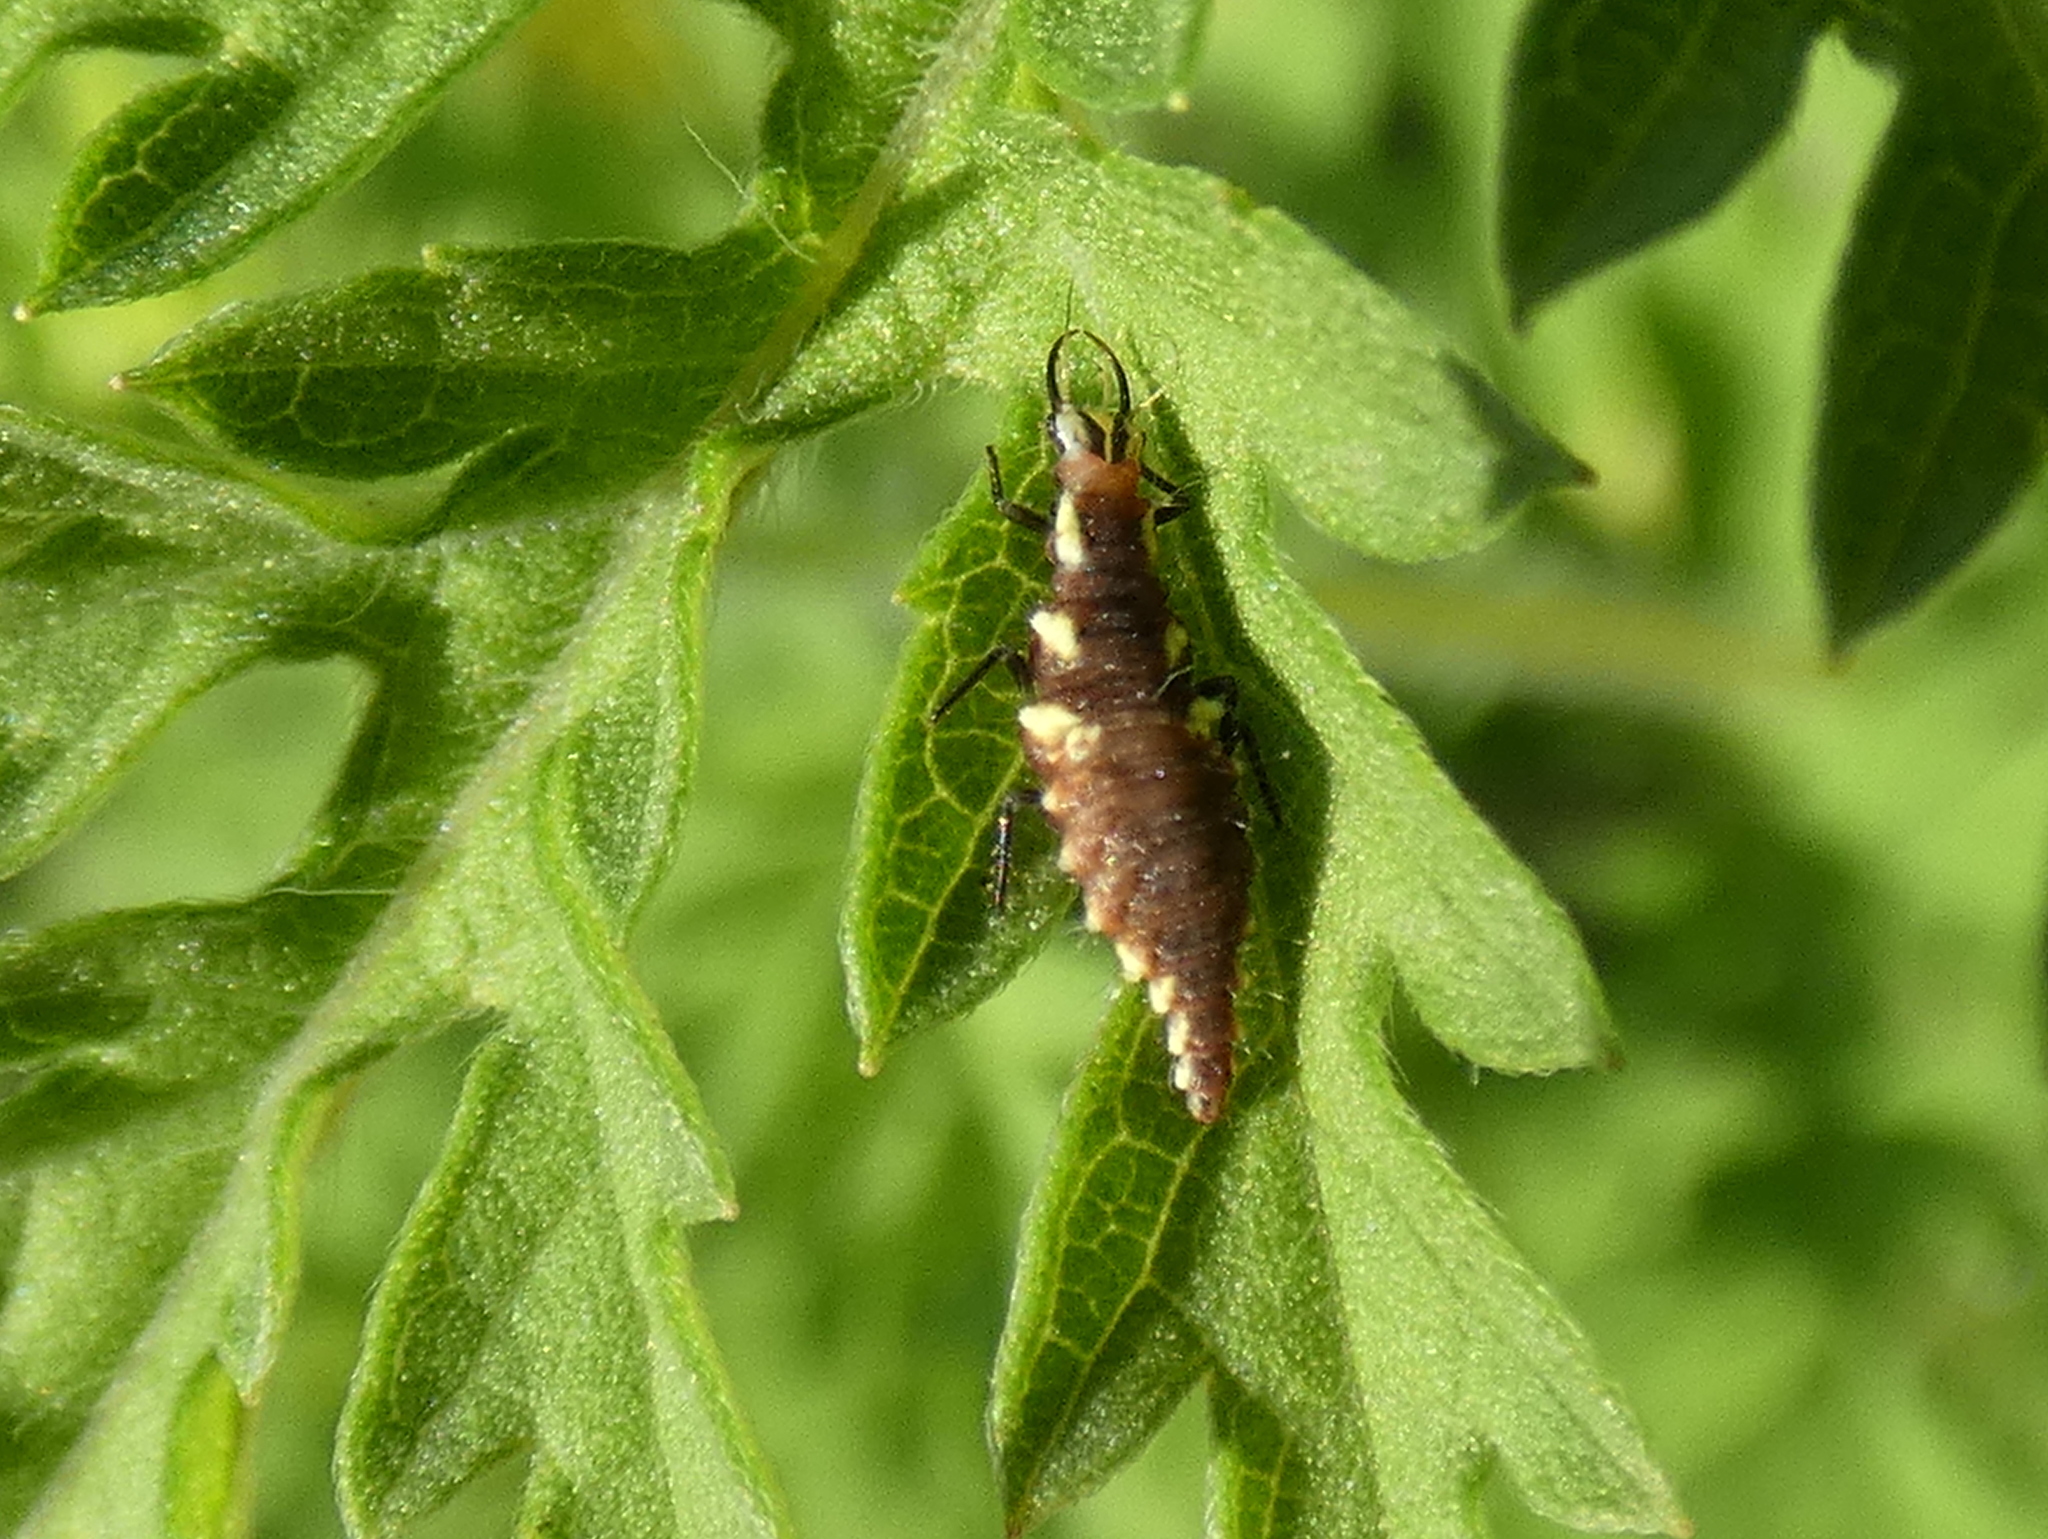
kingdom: Animalia
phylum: Arthropoda
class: Insecta
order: Neuroptera
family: Chrysopidae
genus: Chrysoperla
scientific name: Chrysoperla rufilabris
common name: Red-lipped green lacewing
